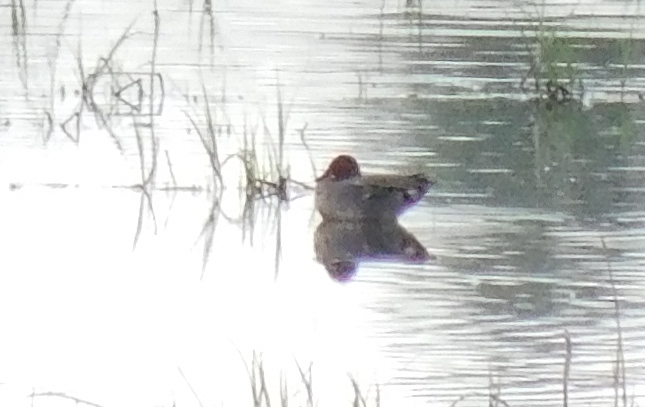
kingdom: Animalia
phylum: Chordata
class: Aves
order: Anseriformes
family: Anatidae
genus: Anas
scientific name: Anas crecca
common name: Eurasian teal
